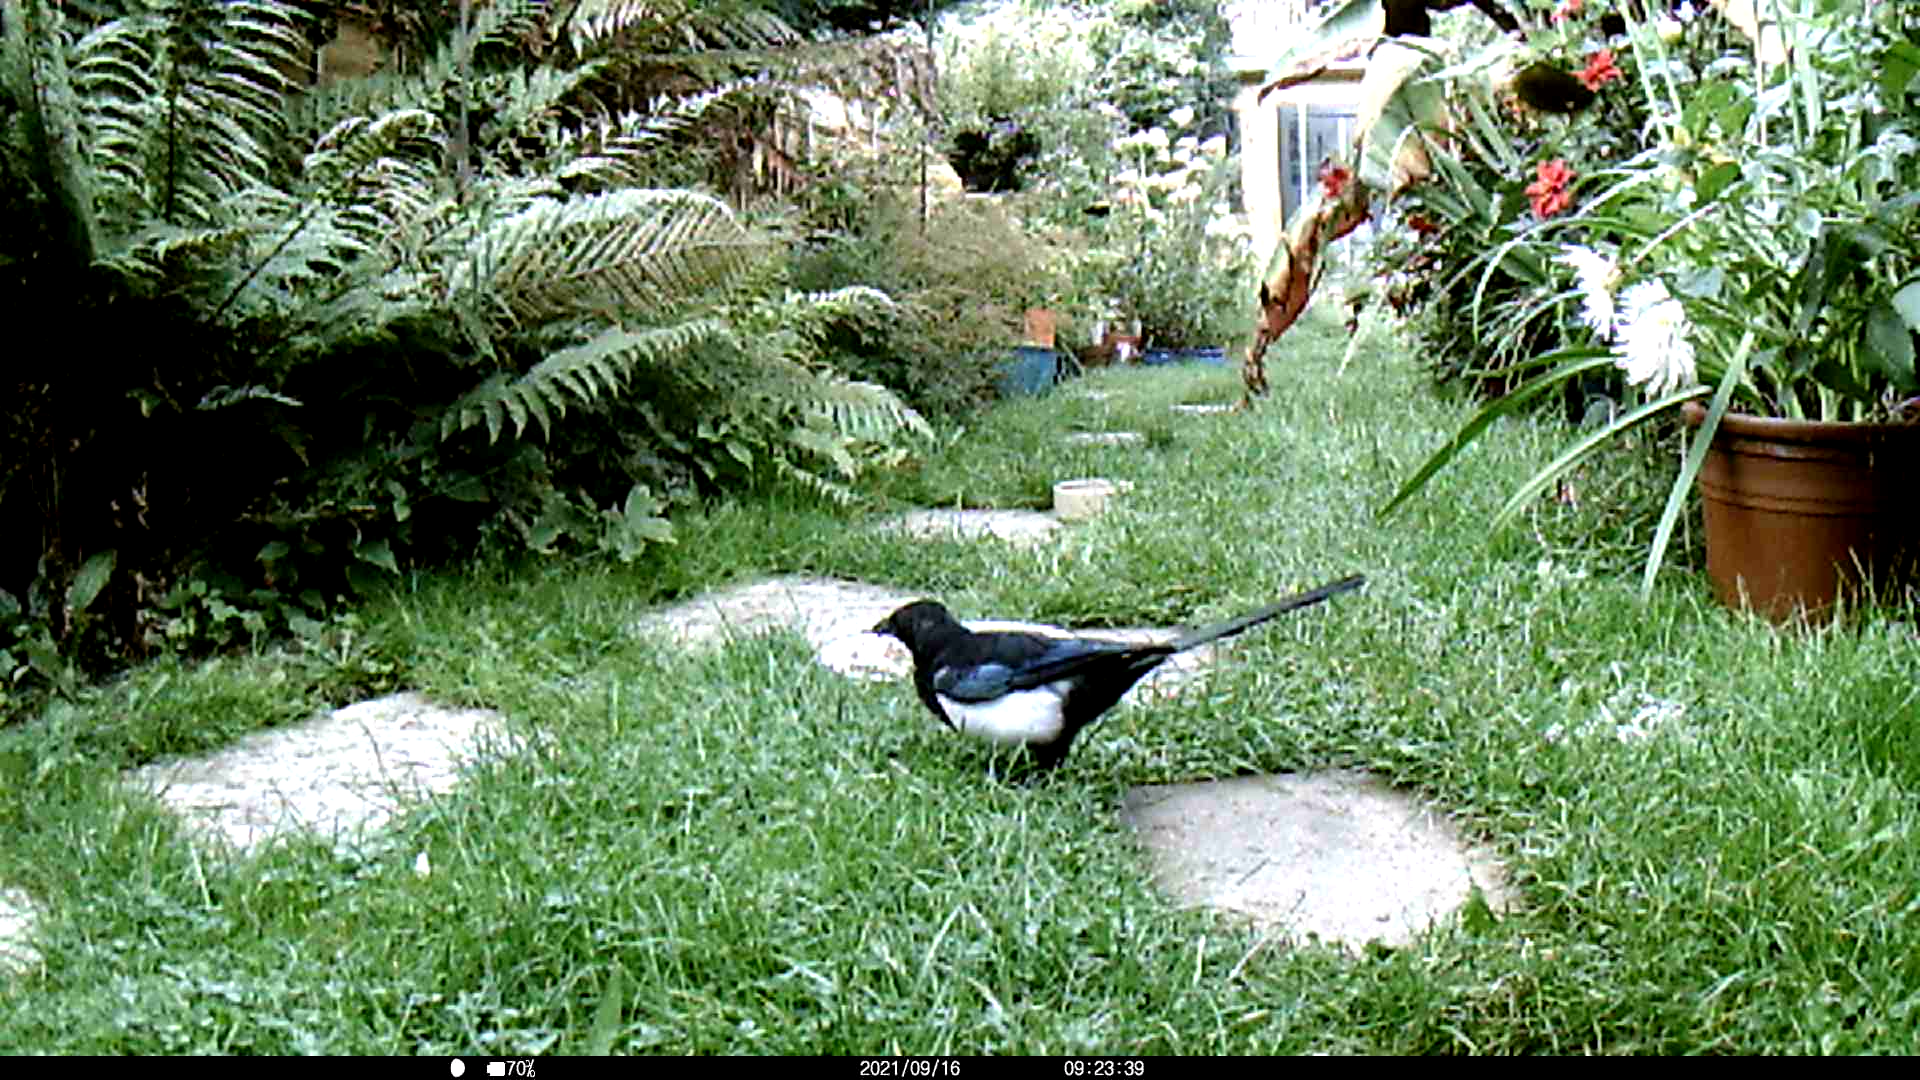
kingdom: Animalia
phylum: Chordata
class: Aves
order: Passeriformes
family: Corvidae
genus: Pica
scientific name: Pica pica
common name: Eurasian magpie
